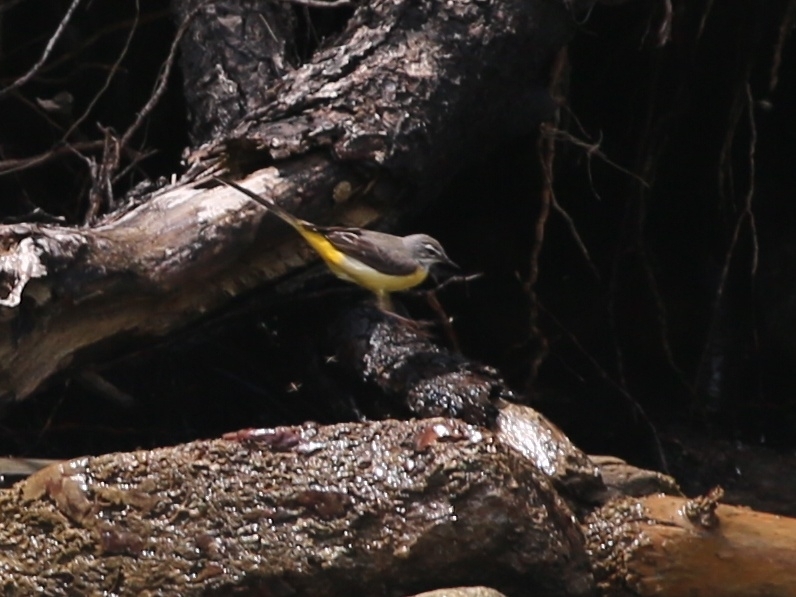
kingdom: Animalia
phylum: Chordata
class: Aves
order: Passeriformes
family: Motacillidae
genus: Motacilla
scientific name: Motacilla cinerea
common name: Grey wagtail
